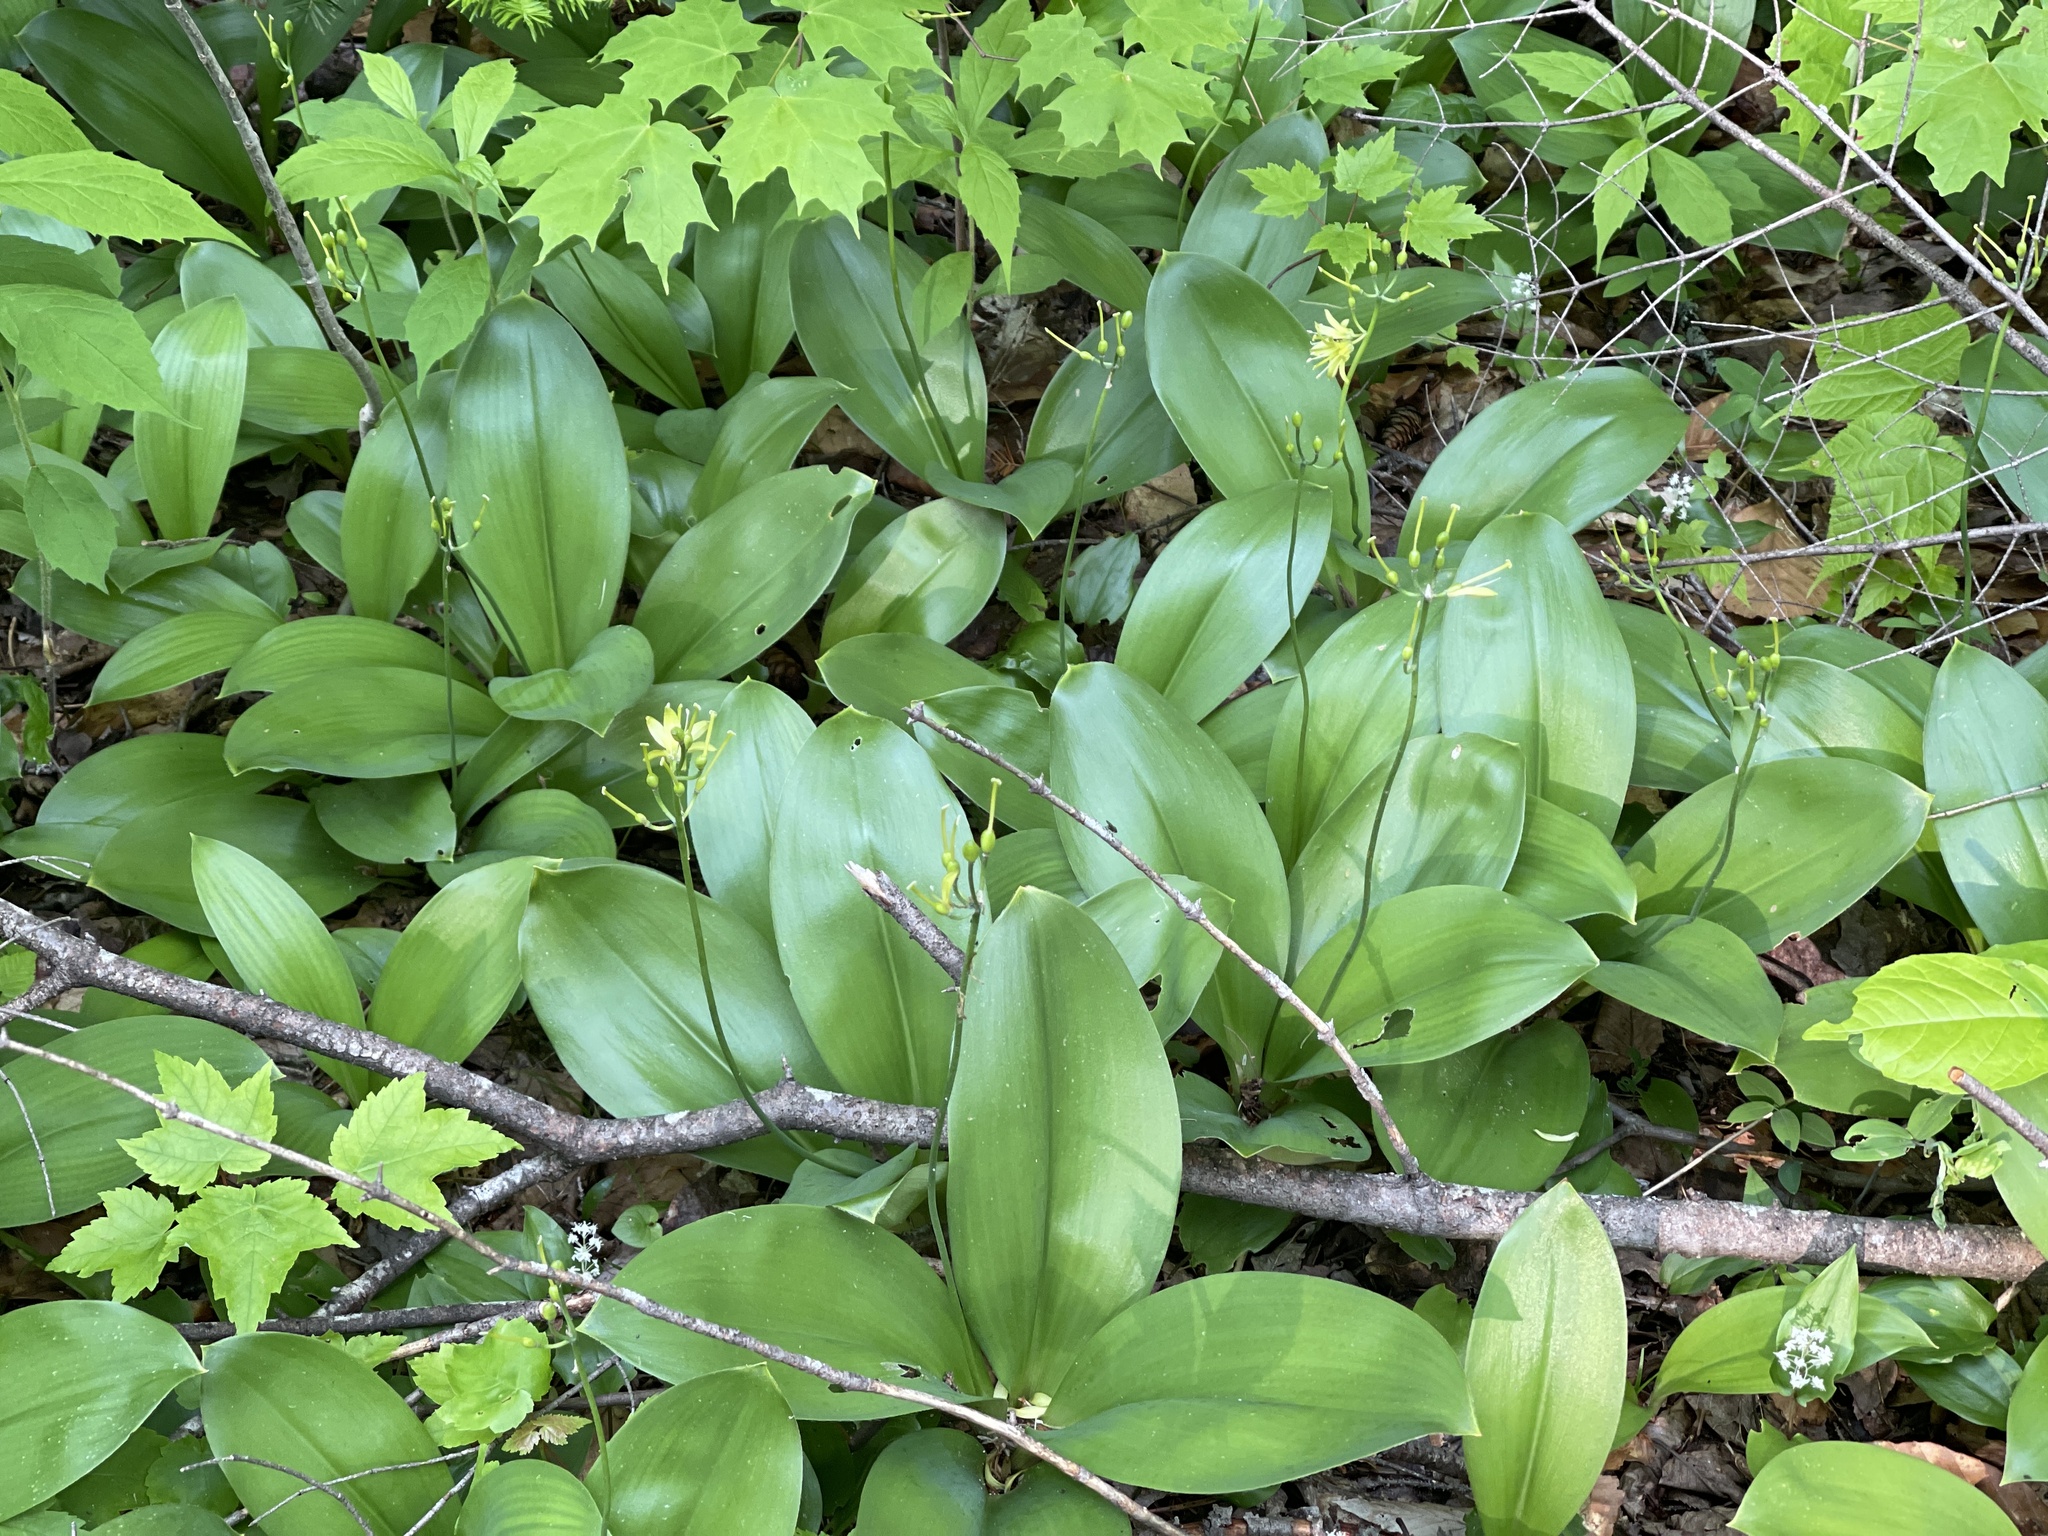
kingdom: Plantae
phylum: Tracheophyta
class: Liliopsida
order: Liliales
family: Liliaceae
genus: Clintonia
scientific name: Clintonia borealis
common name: Yellow clintonia
